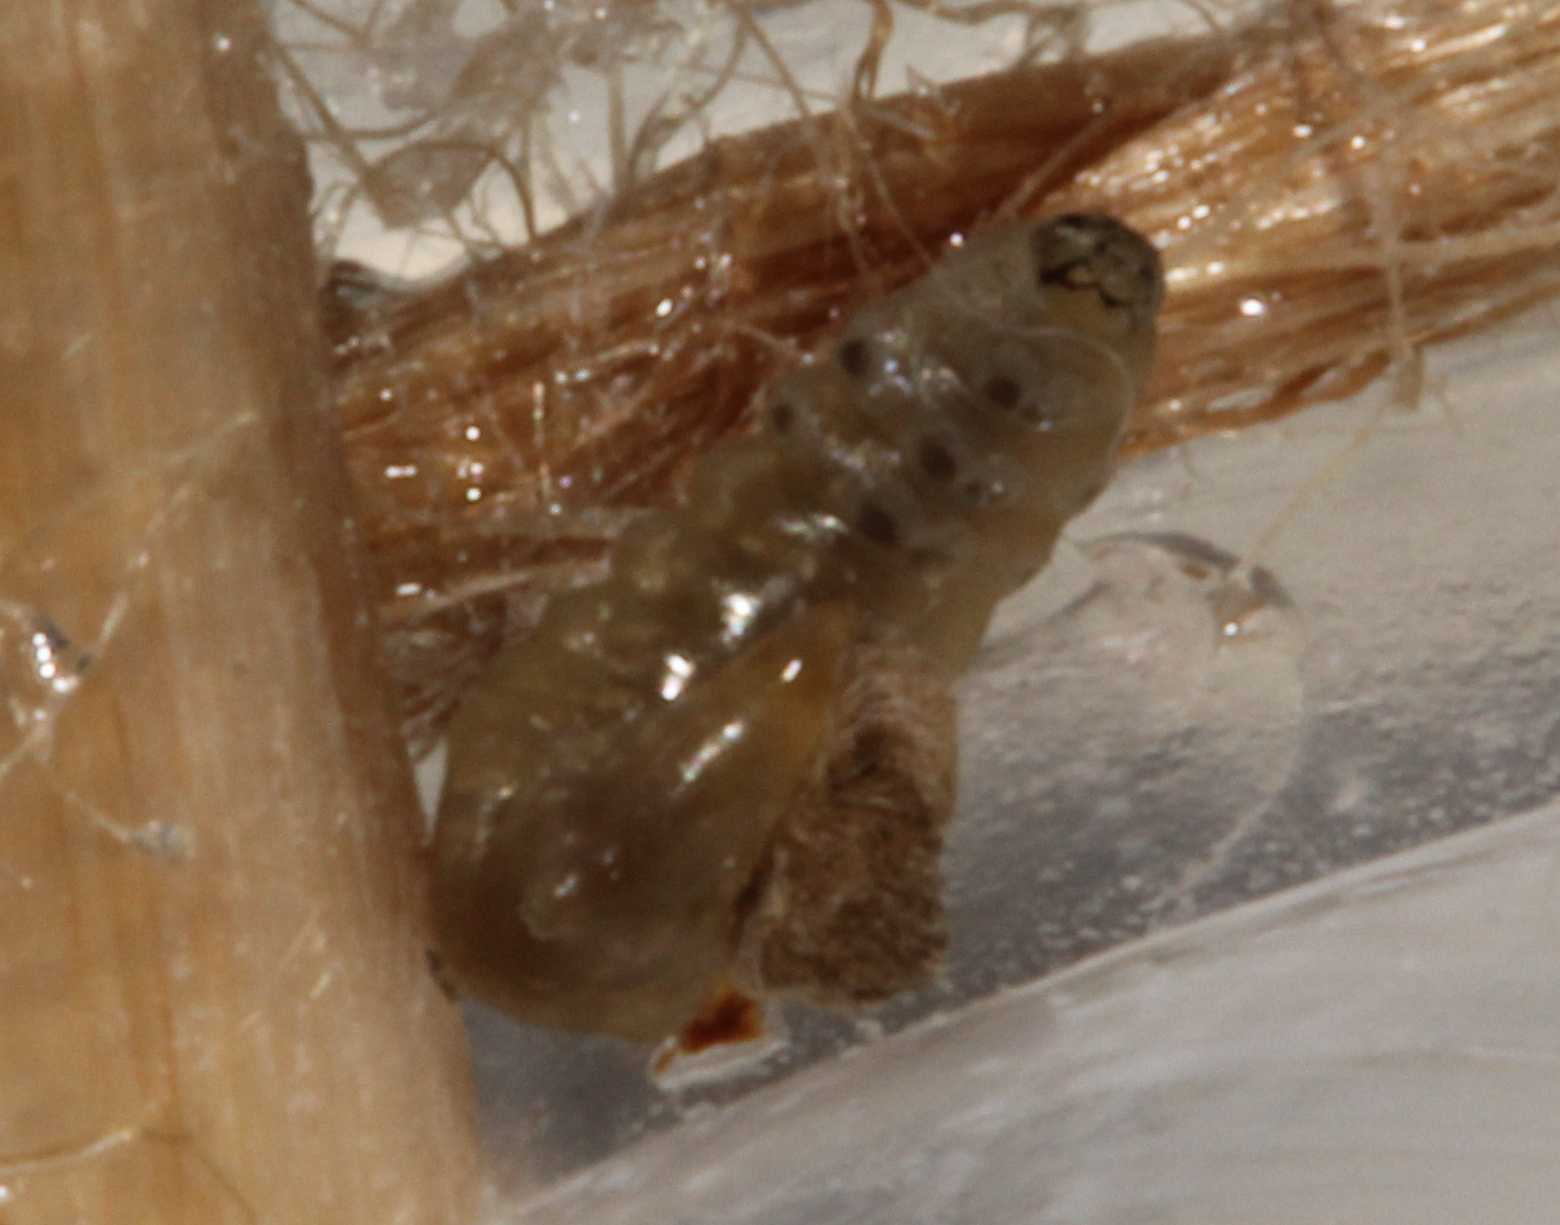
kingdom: Animalia
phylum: Arthropoda
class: Insecta
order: Hymenoptera
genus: Ephialtina
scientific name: Ephialtina
